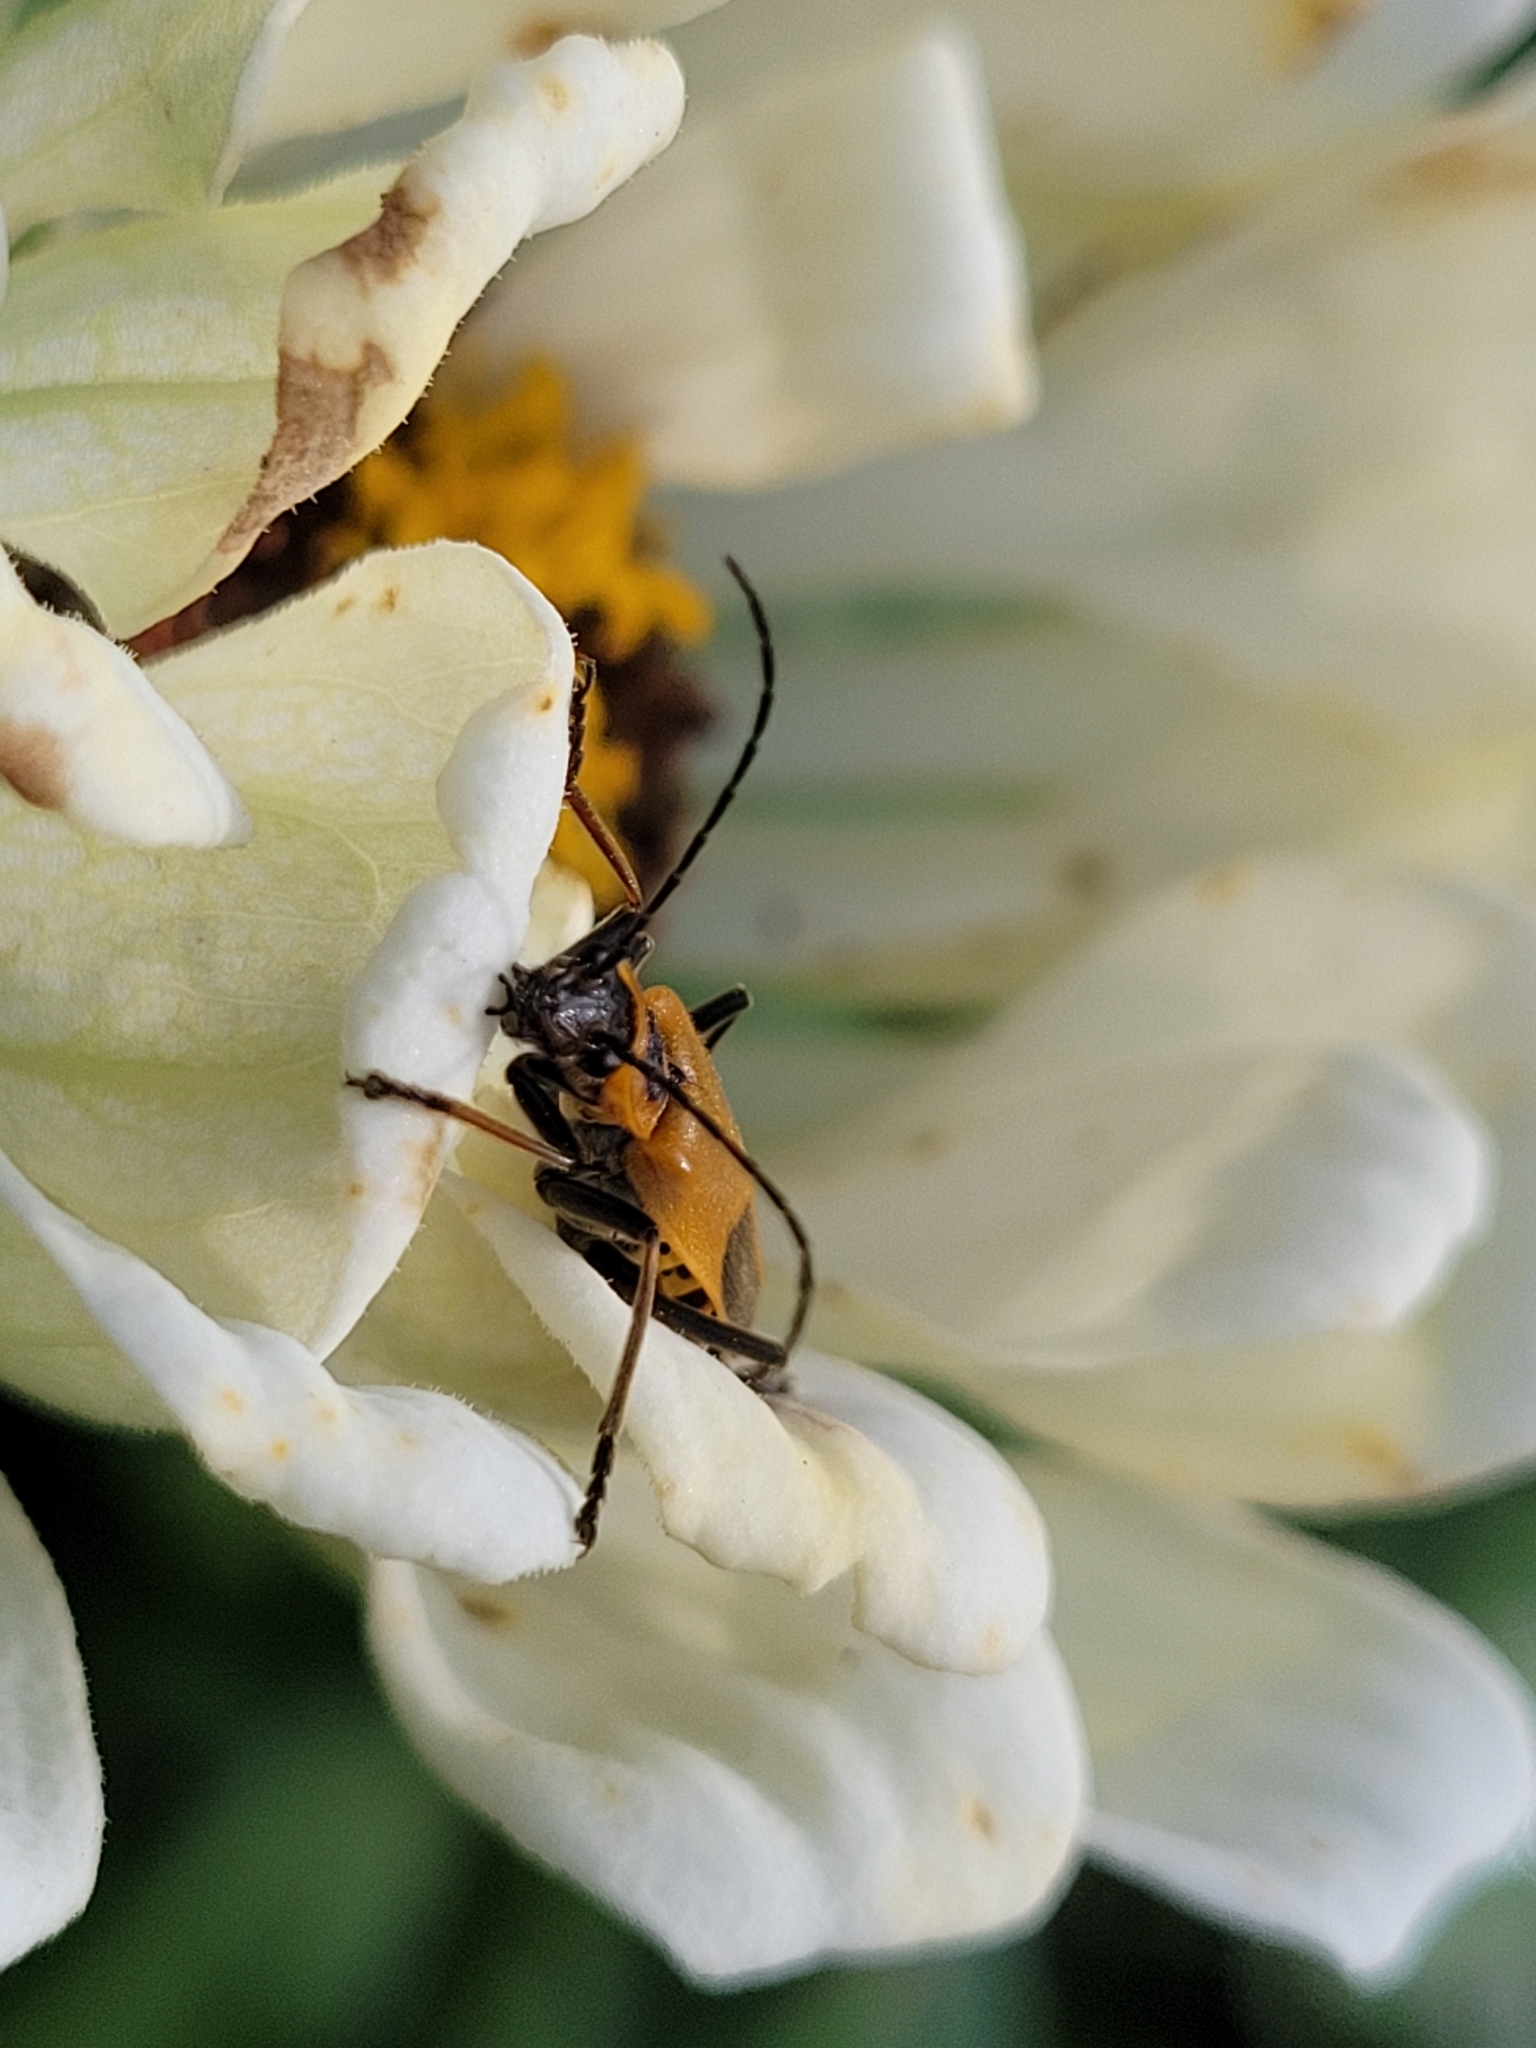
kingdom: Animalia
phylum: Arthropoda
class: Insecta
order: Coleoptera
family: Cantharidae
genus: Chauliognathus
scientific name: Chauliognathus pensylvanicus
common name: Goldenrod soldier beetle
